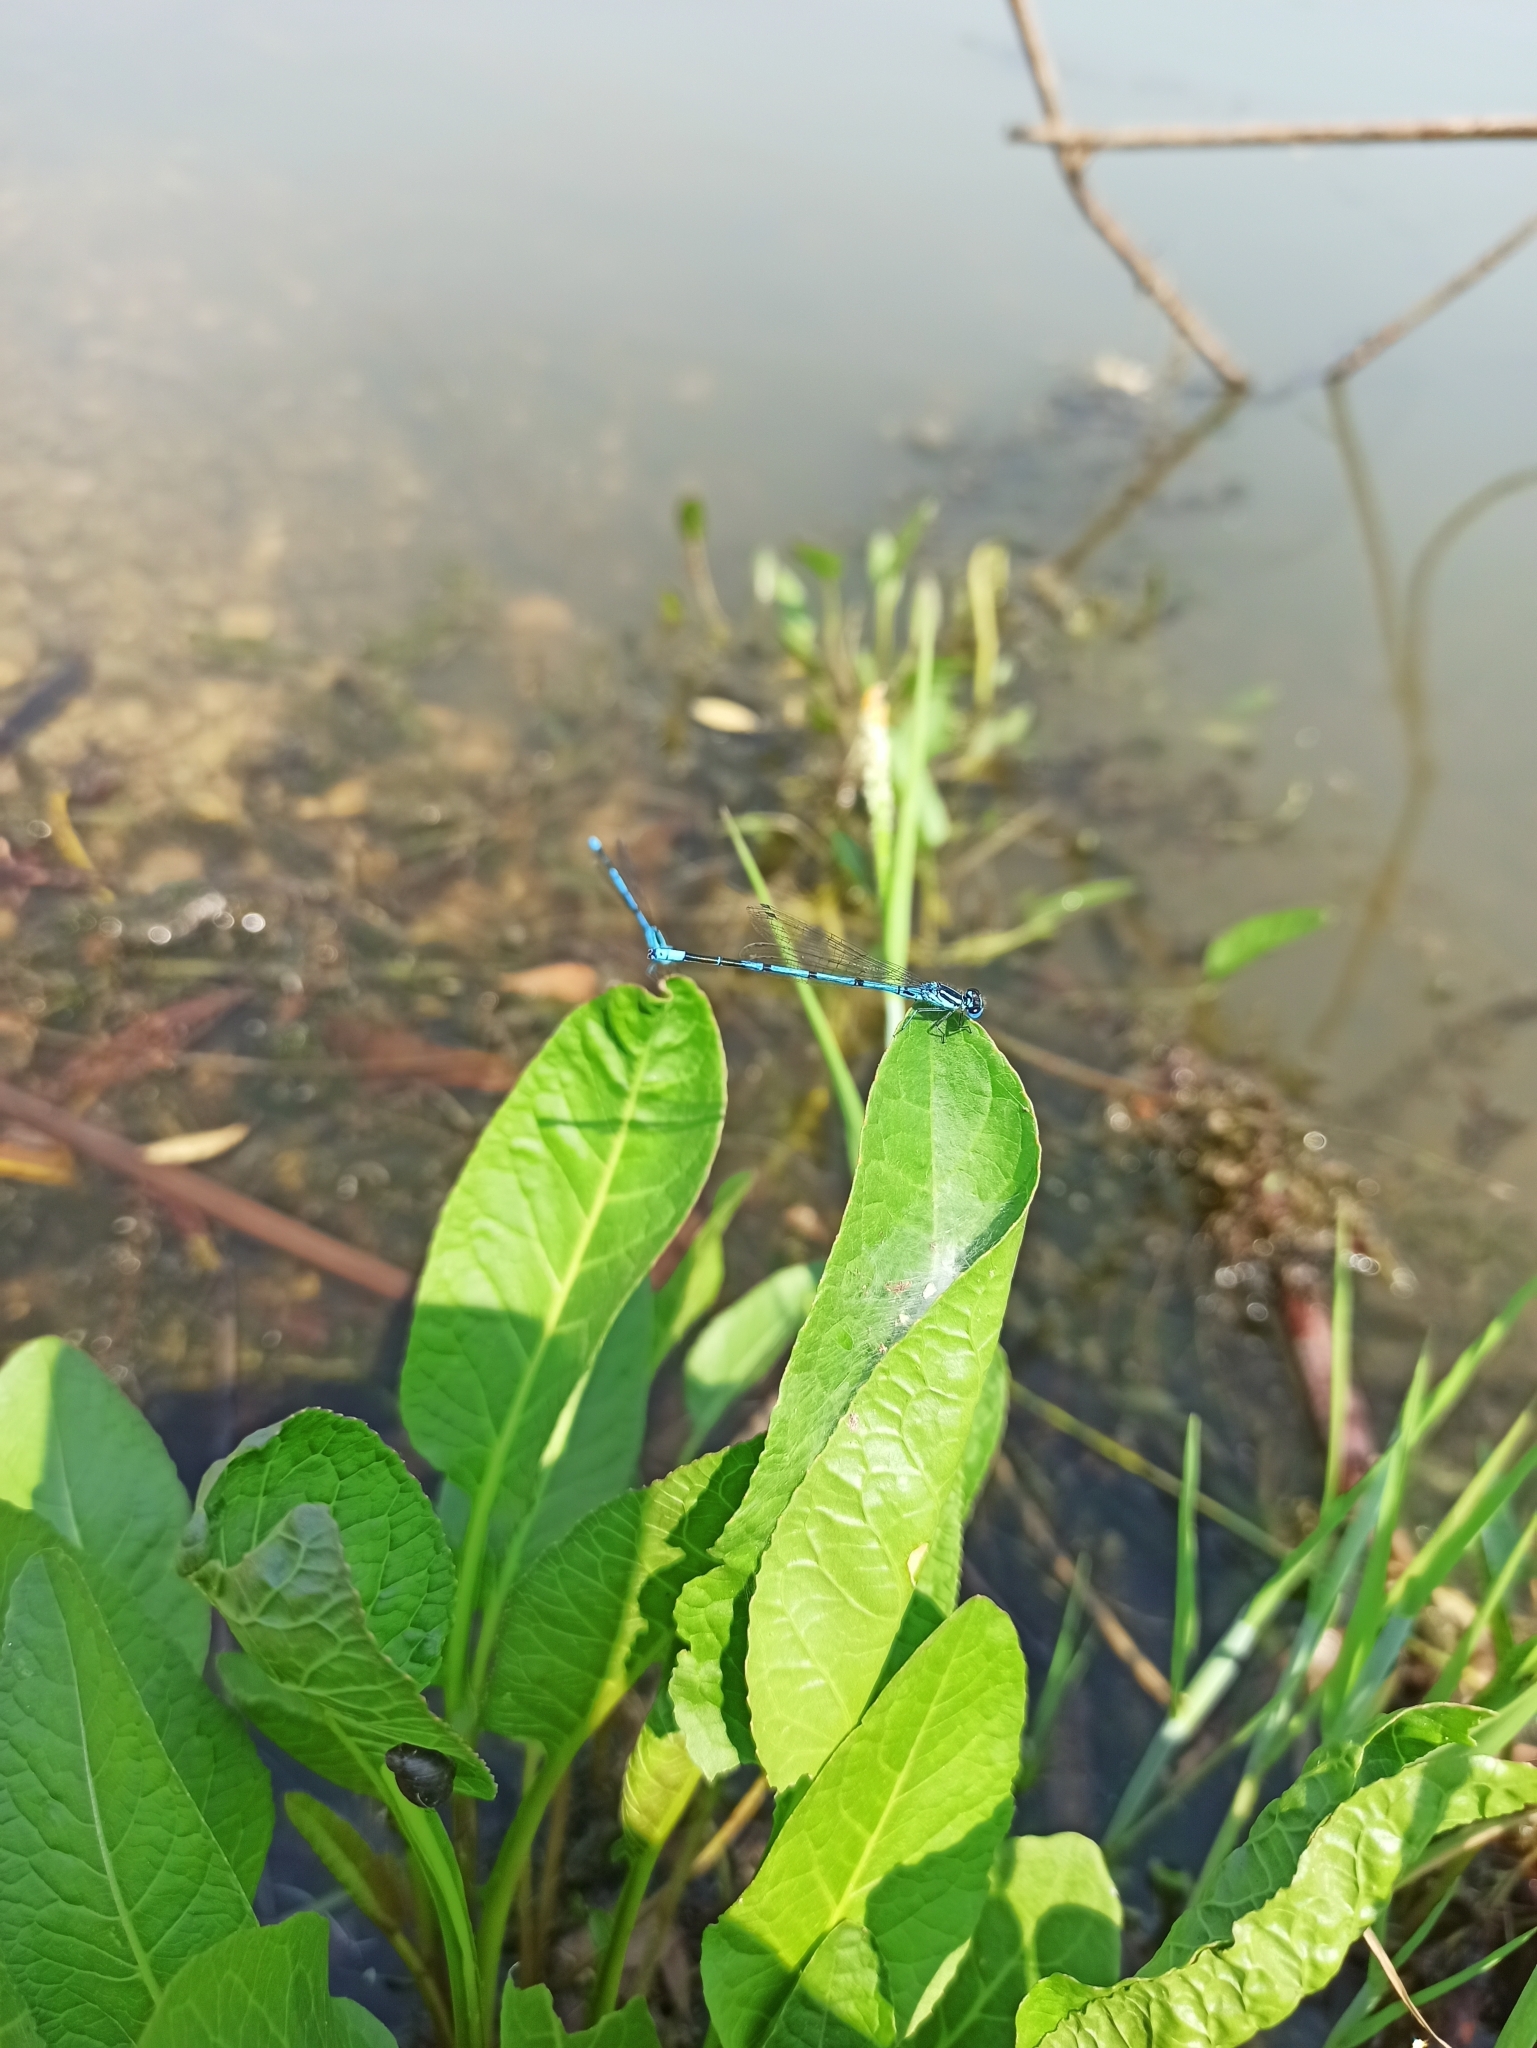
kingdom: Animalia
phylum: Arthropoda
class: Insecta
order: Odonata
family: Coenagrionidae
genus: Coenagrion
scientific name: Coenagrion puella
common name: Azure damselfly
